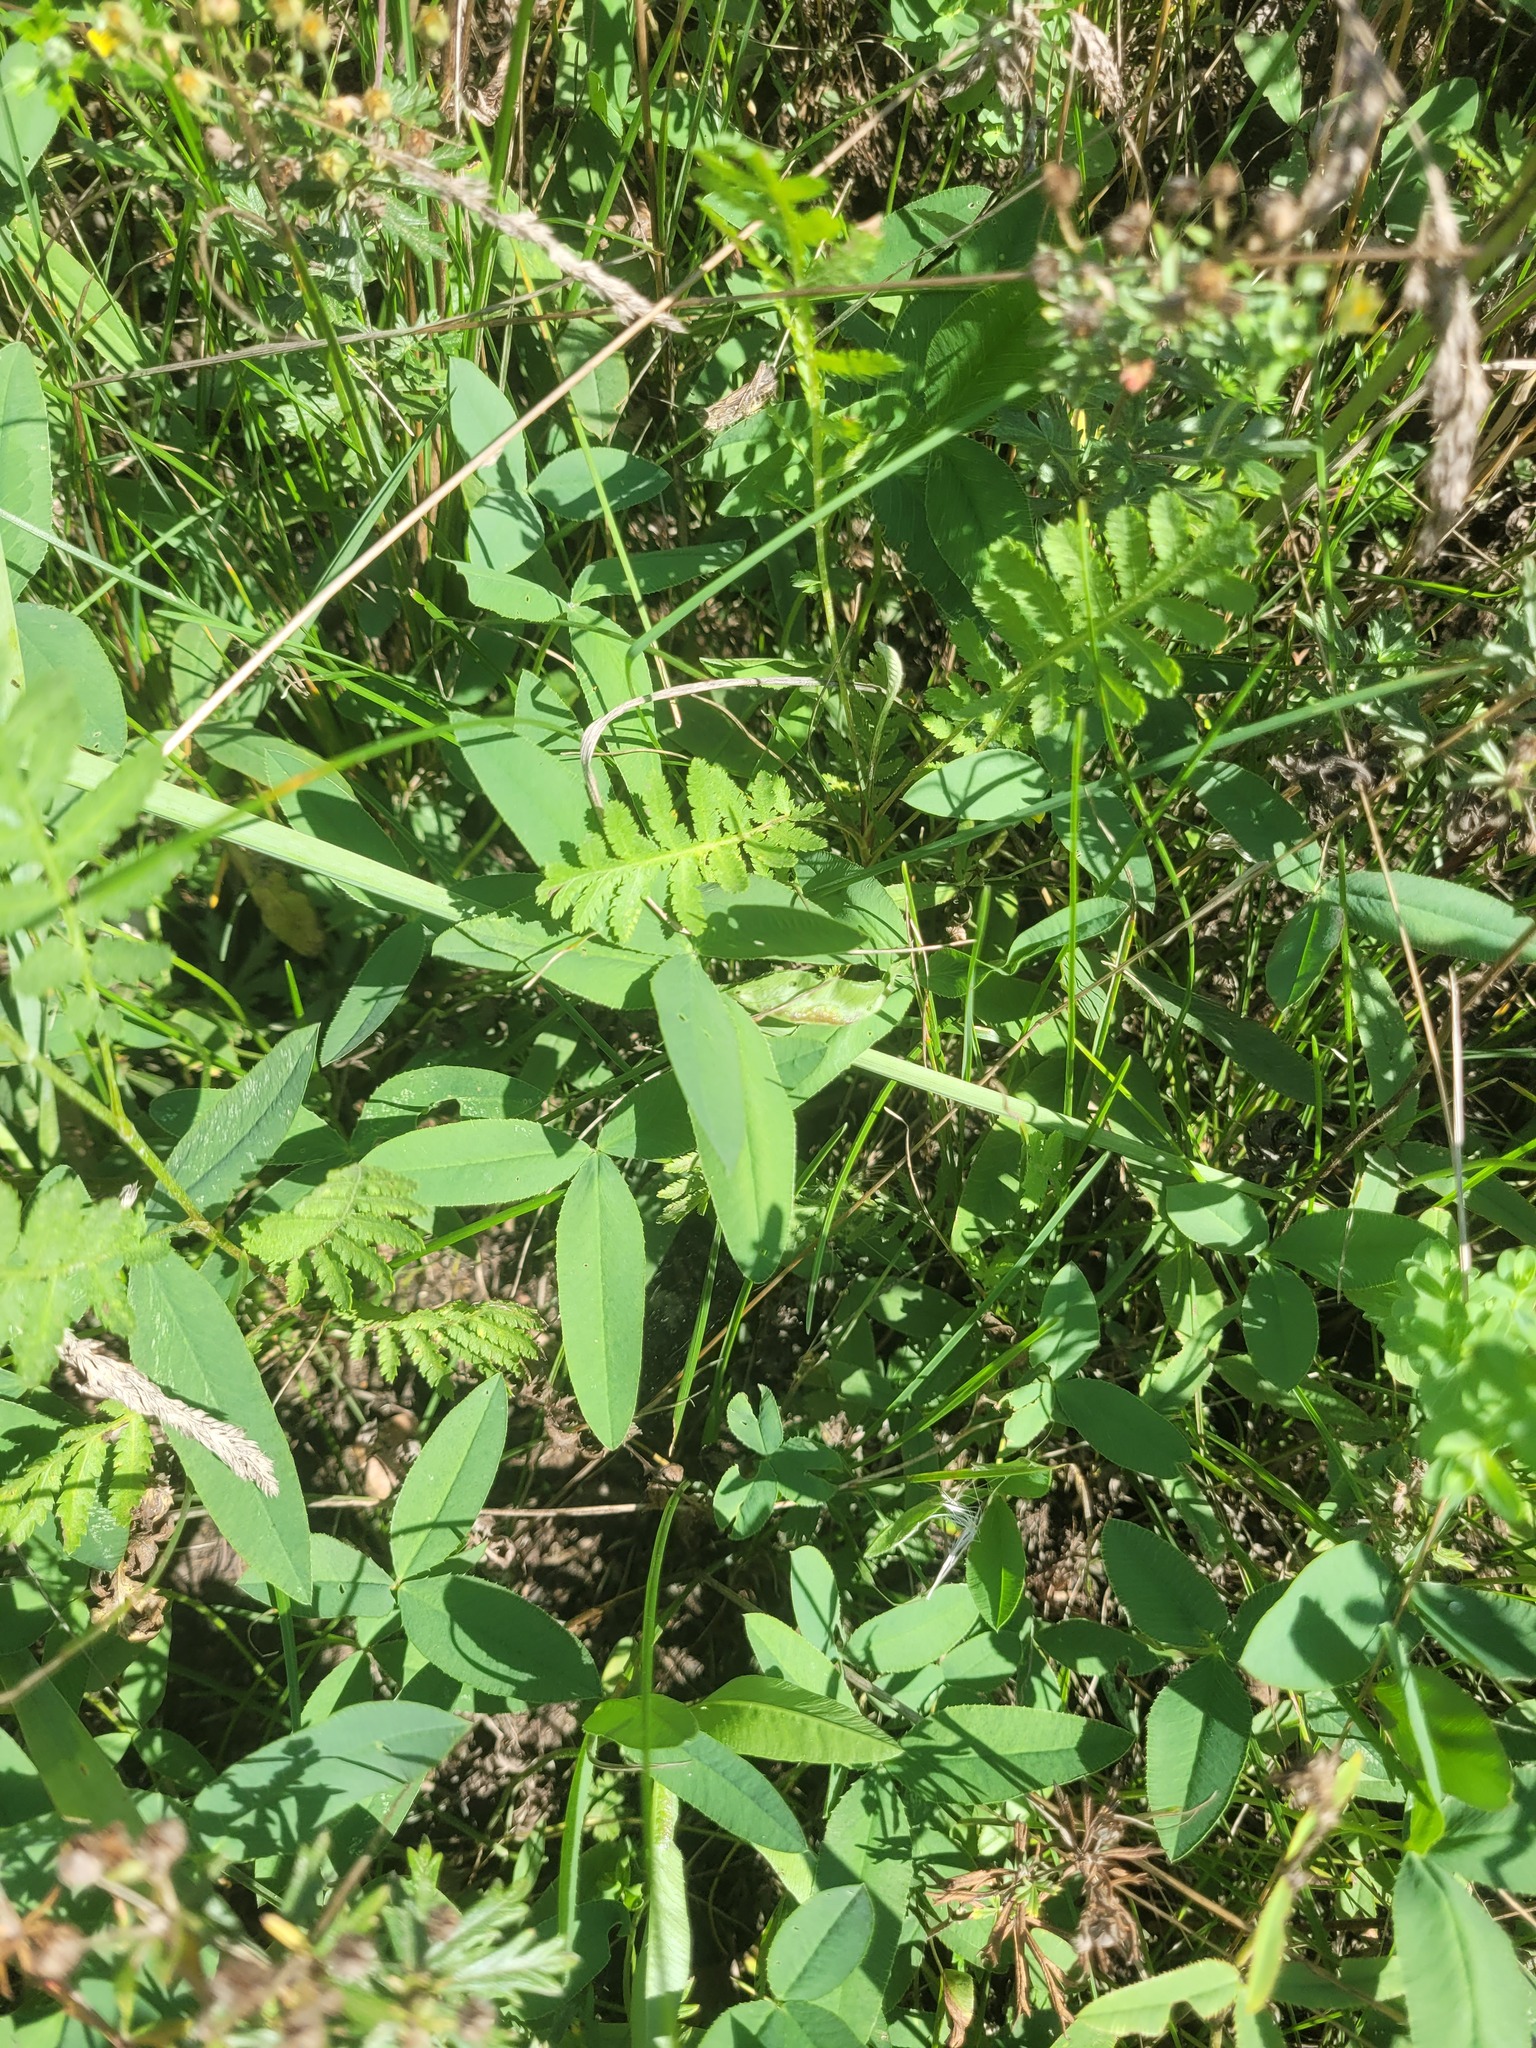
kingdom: Plantae
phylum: Tracheophyta
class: Magnoliopsida
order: Fabales
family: Fabaceae
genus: Trifolium
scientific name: Trifolium montanum
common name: Mountain clover
